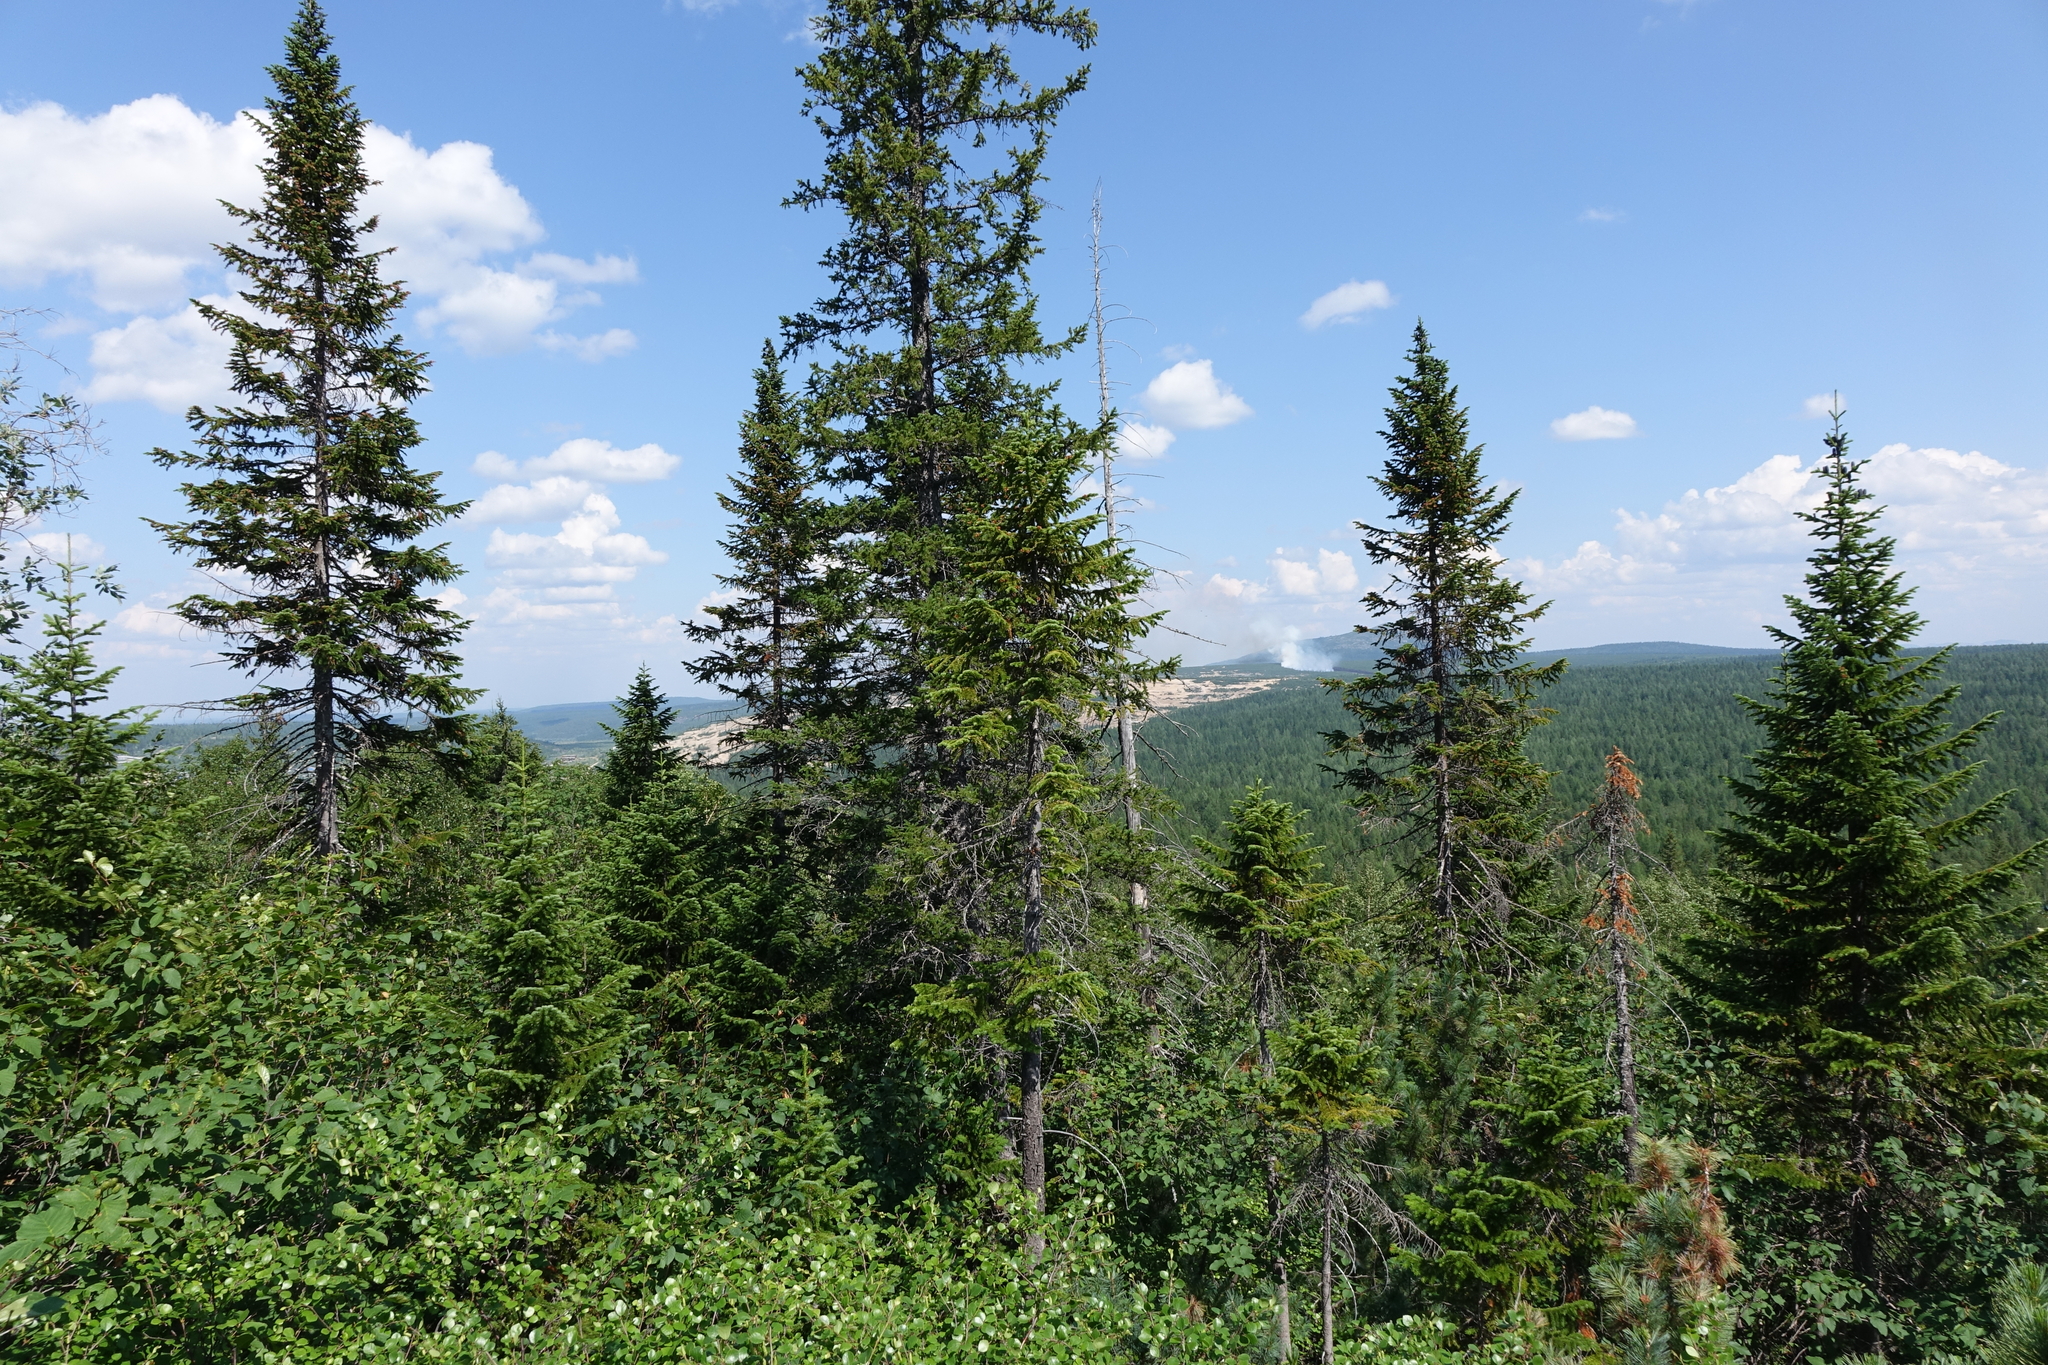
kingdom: Plantae
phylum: Tracheophyta
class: Pinopsida
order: Pinales
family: Pinaceae
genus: Abies
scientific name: Abies sibirica
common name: Siberian fir
